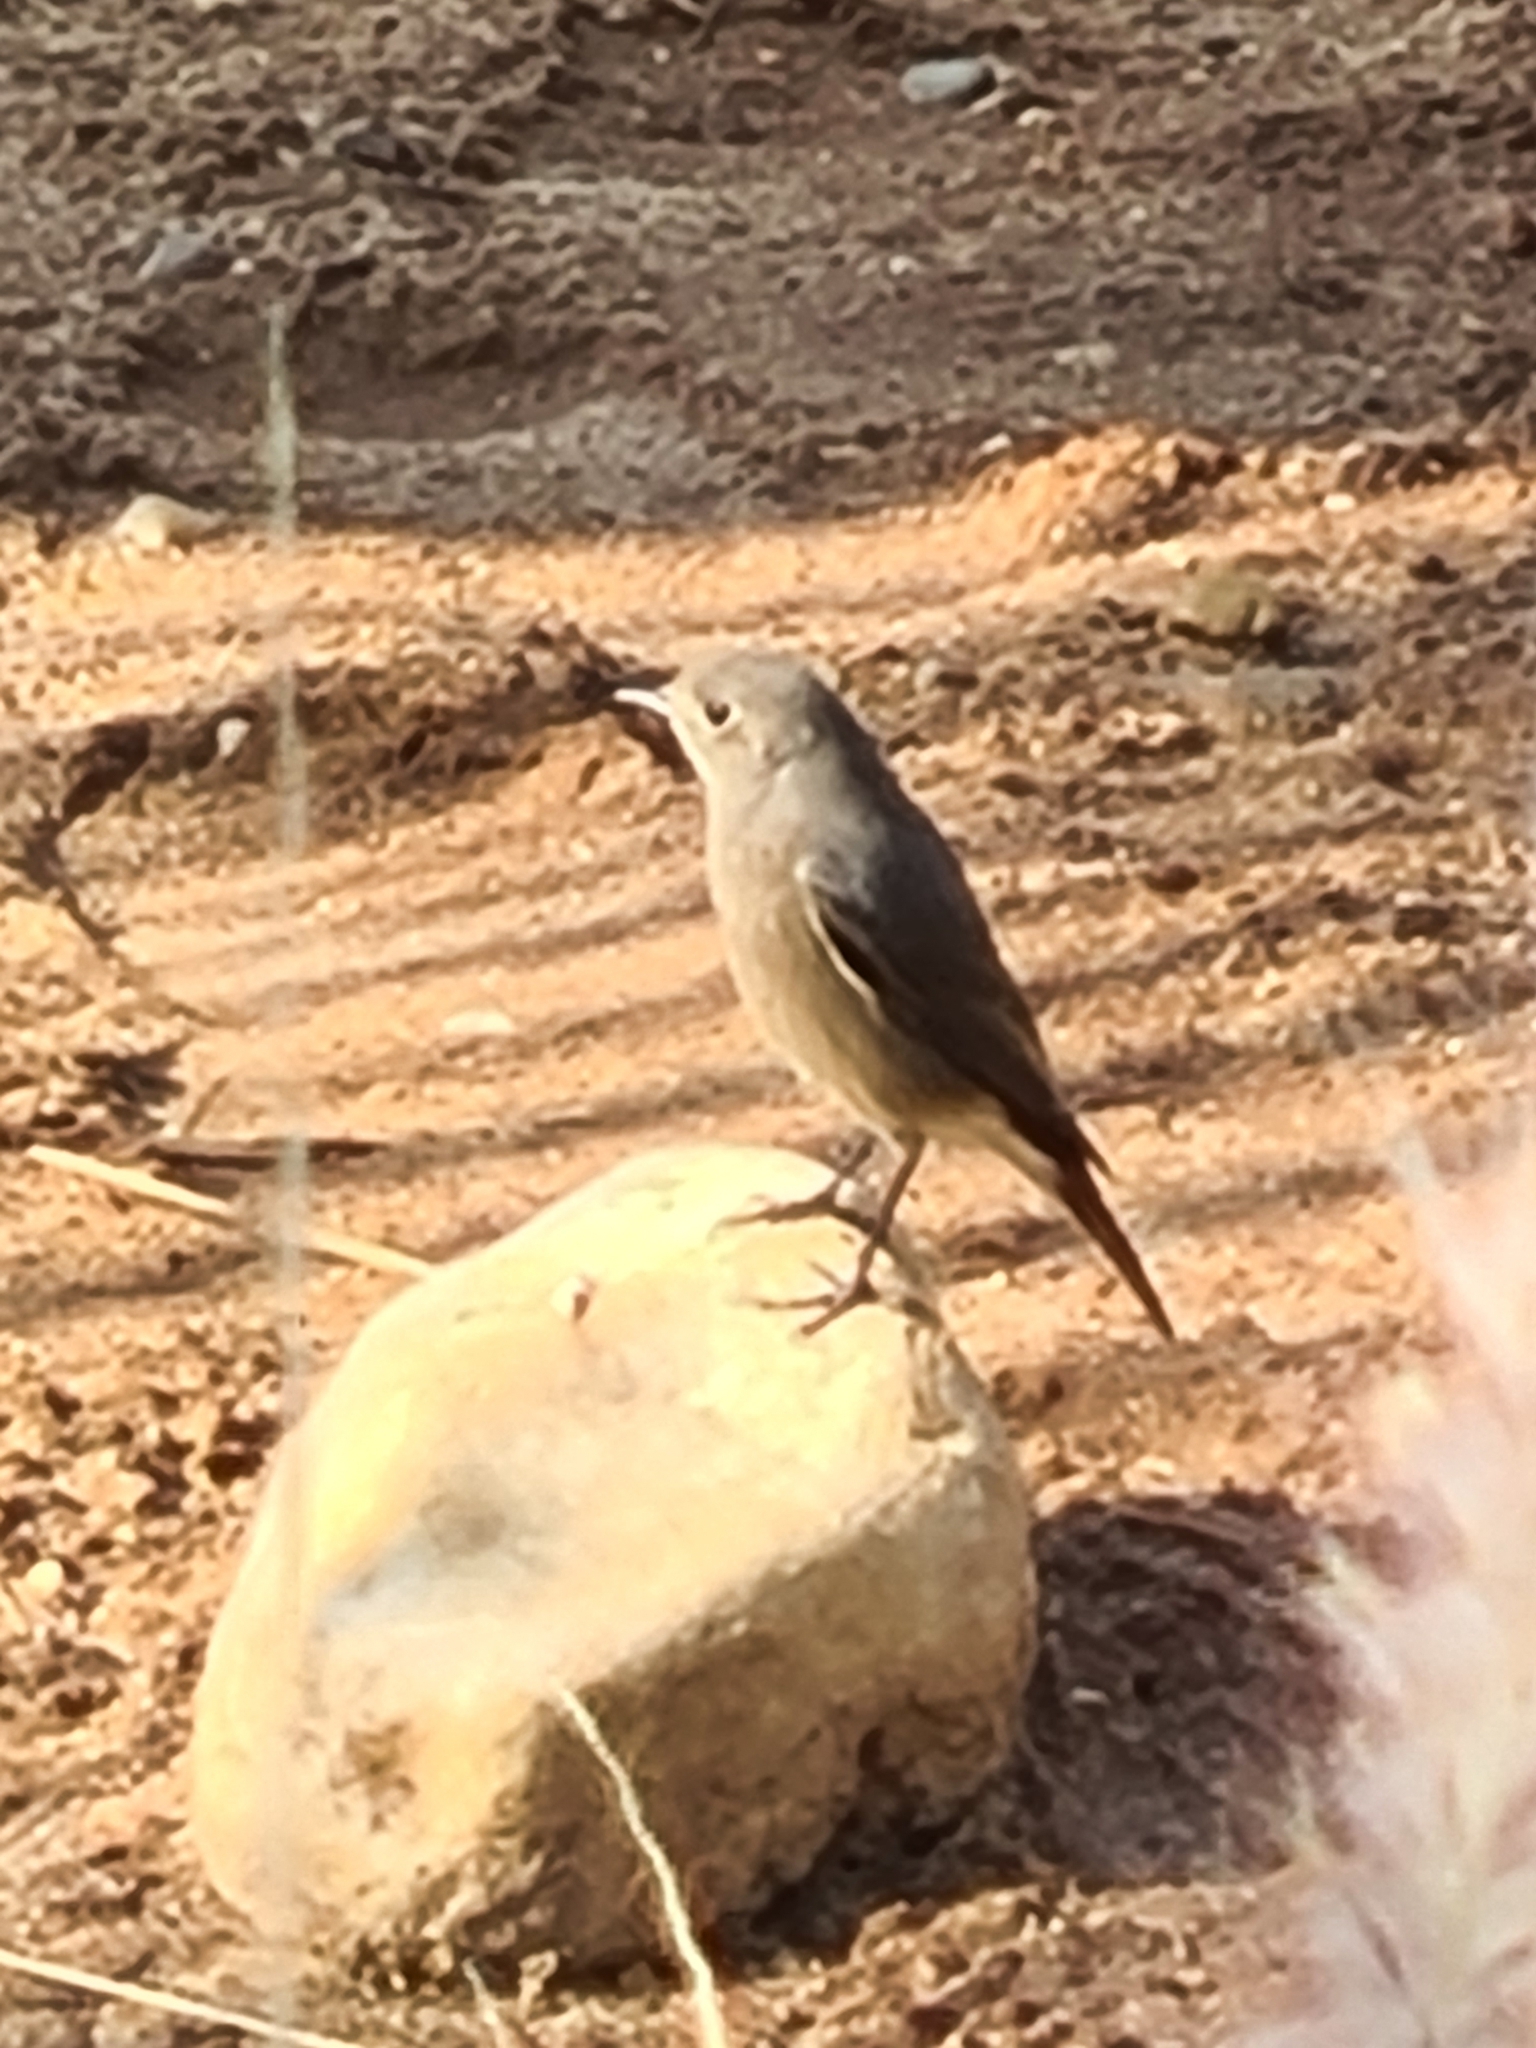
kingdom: Animalia
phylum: Chordata
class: Aves
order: Passeriformes
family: Muscicapidae
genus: Phoenicurus
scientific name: Phoenicurus ochruros
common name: Black redstart
